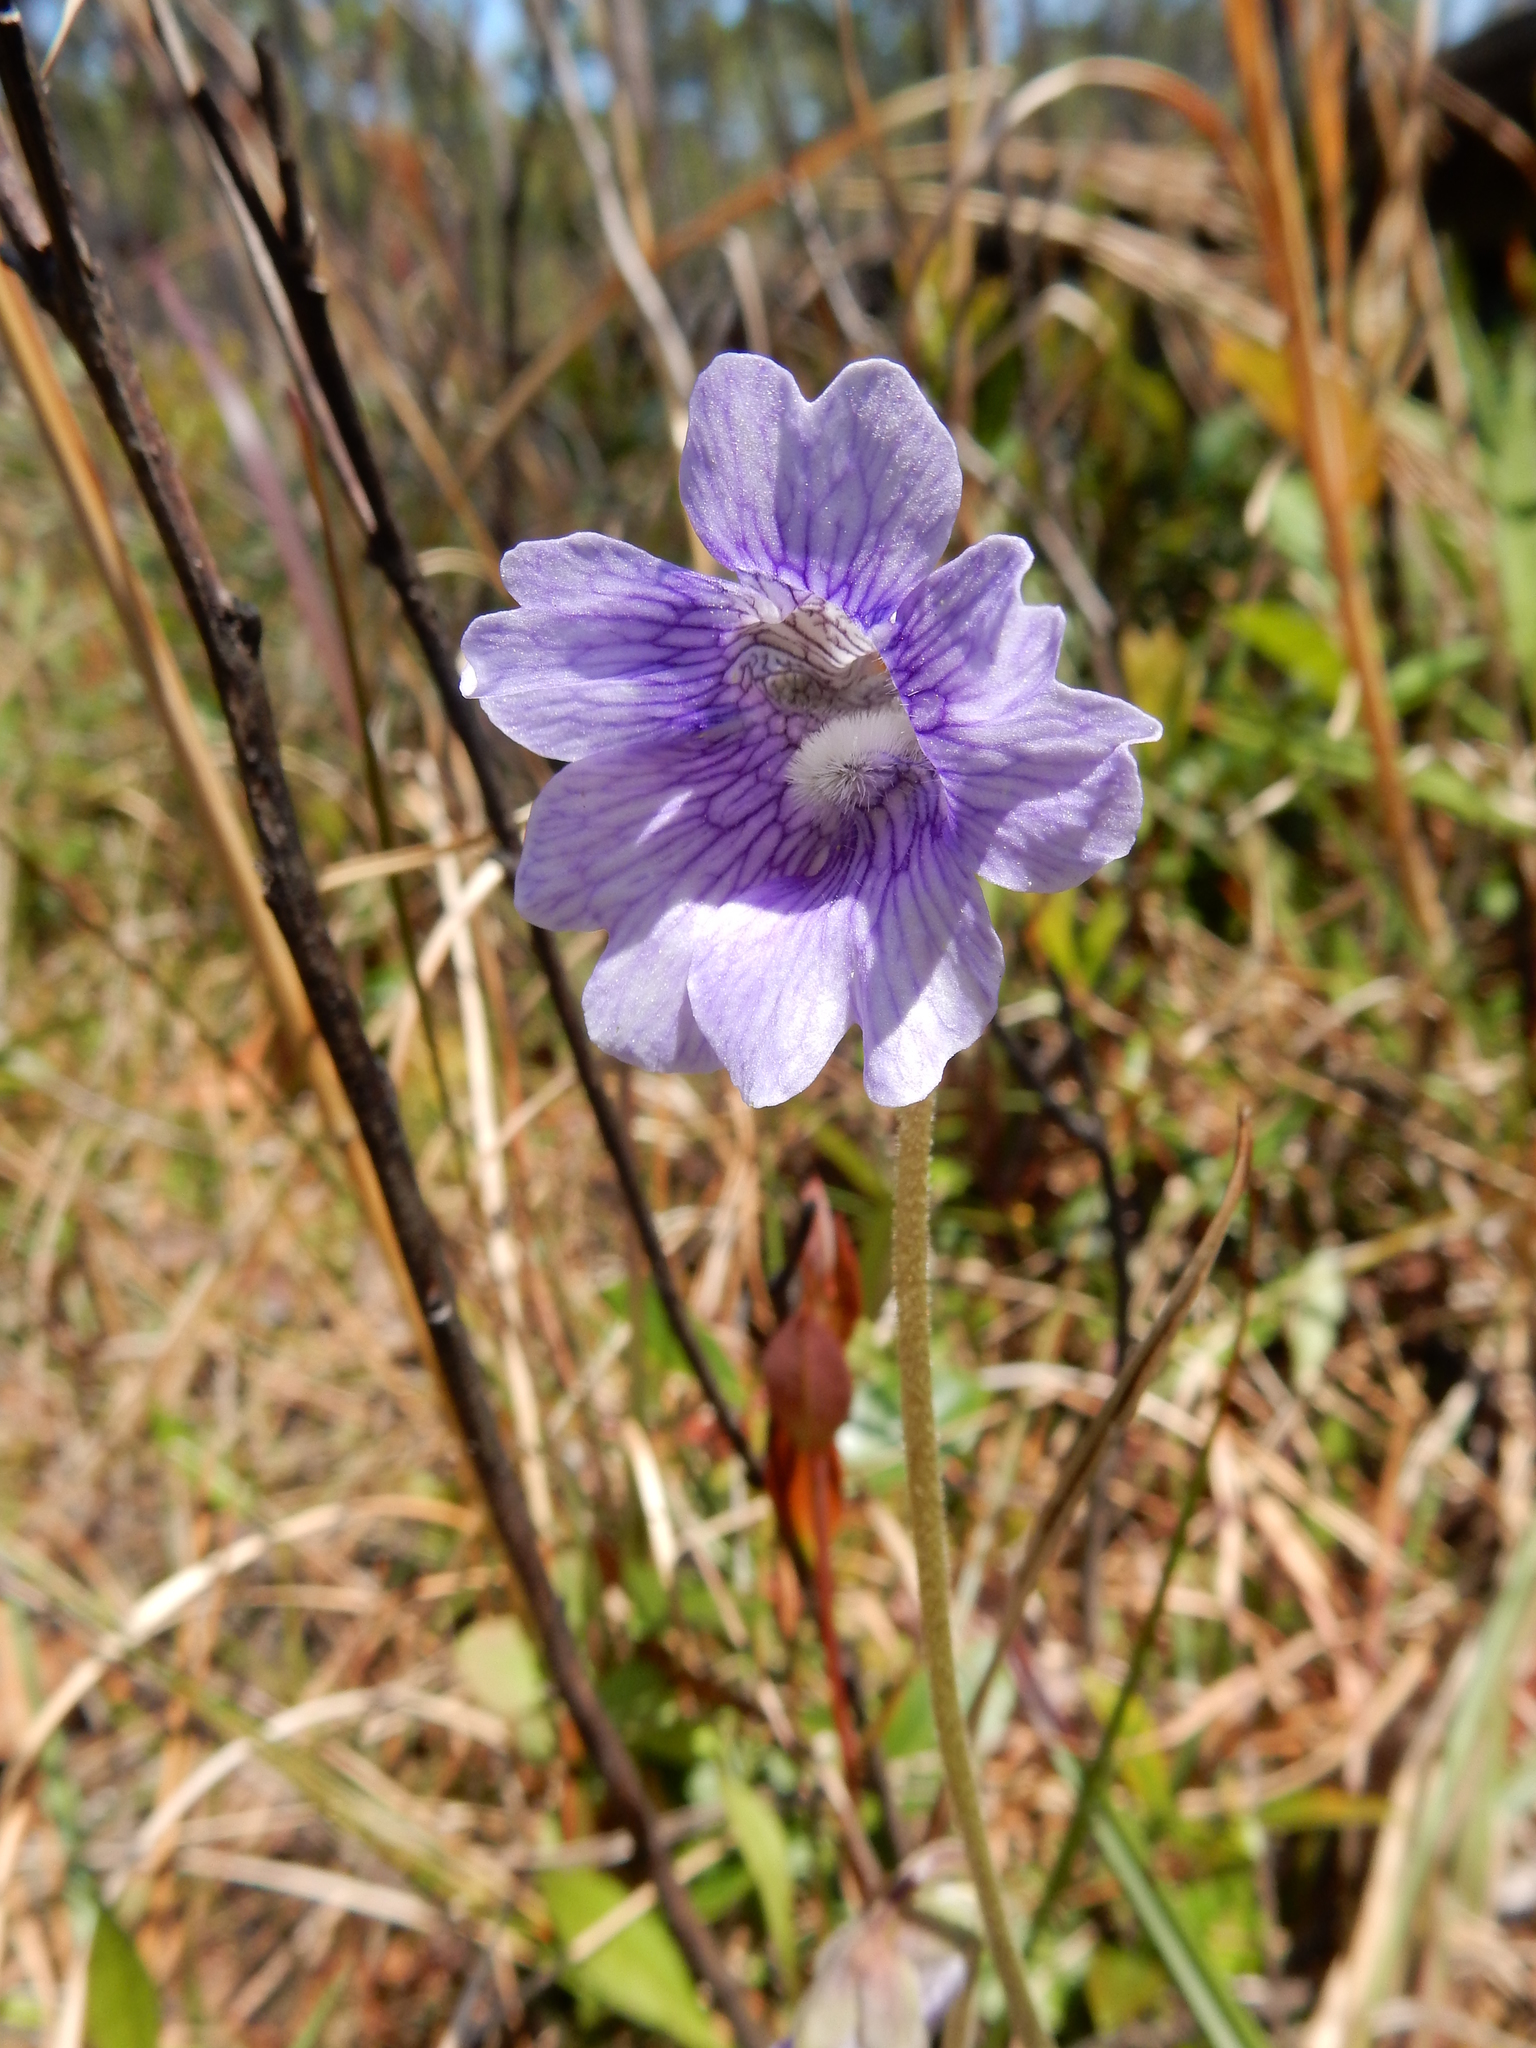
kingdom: Plantae
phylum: Tracheophyta
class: Magnoliopsida
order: Lamiales
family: Lentibulariaceae
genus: Pinguicula
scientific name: Pinguicula caerulea
